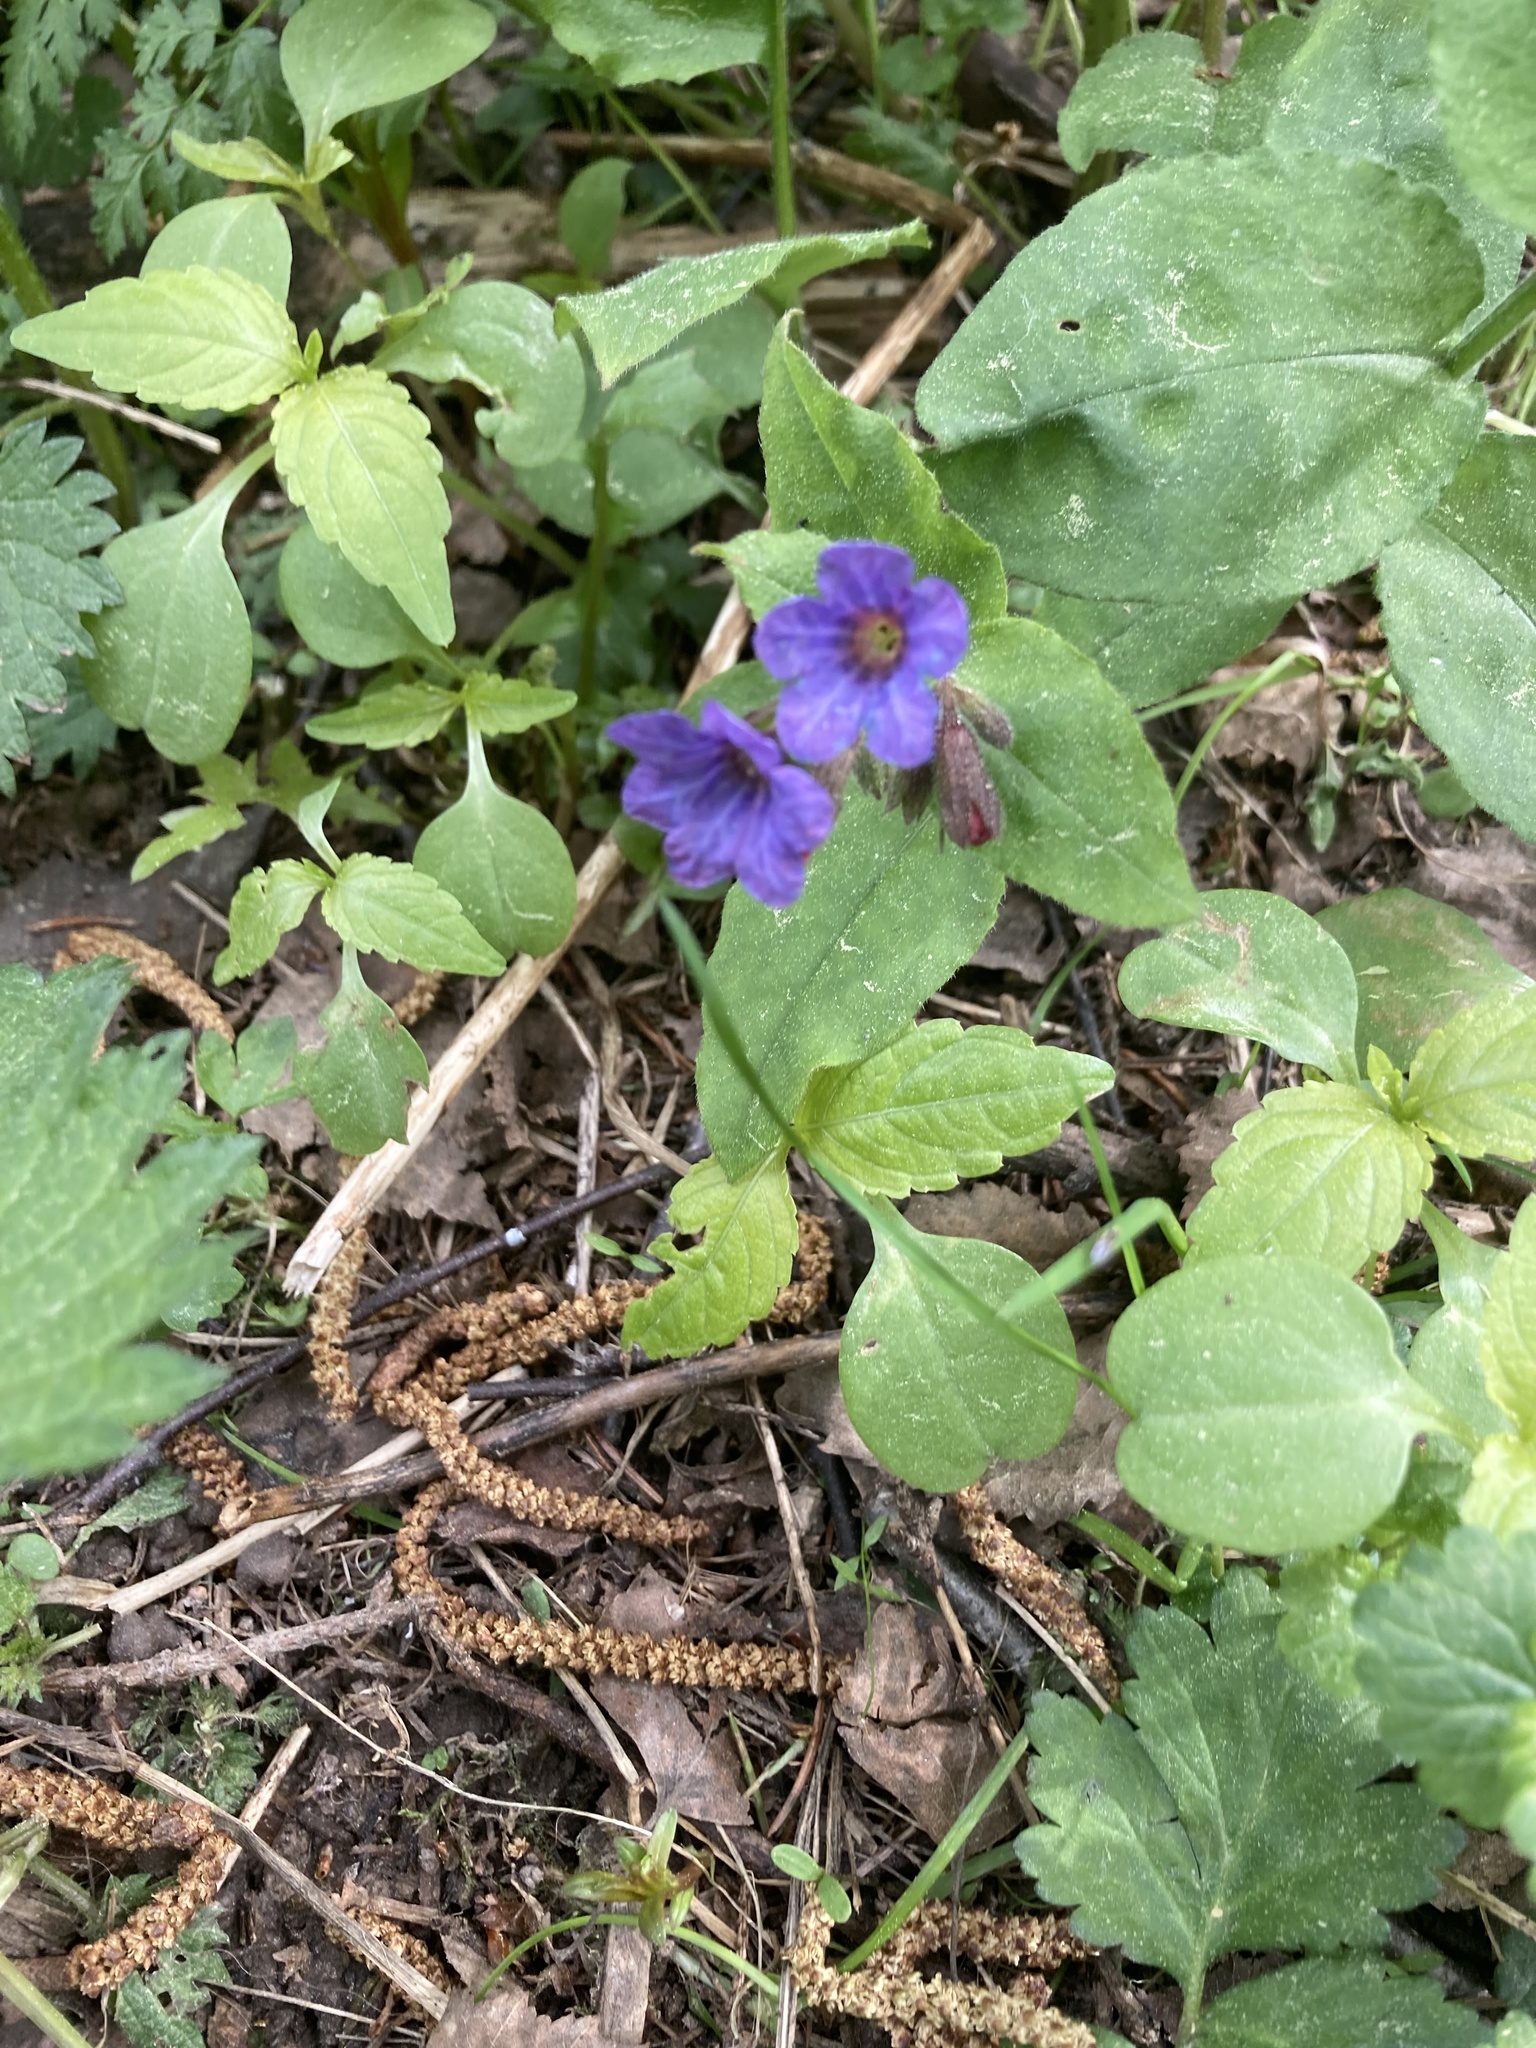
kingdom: Plantae
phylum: Tracheophyta
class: Magnoliopsida
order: Boraginales
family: Boraginaceae
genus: Pulmonaria
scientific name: Pulmonaria obscura
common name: Suffolk lungwort
